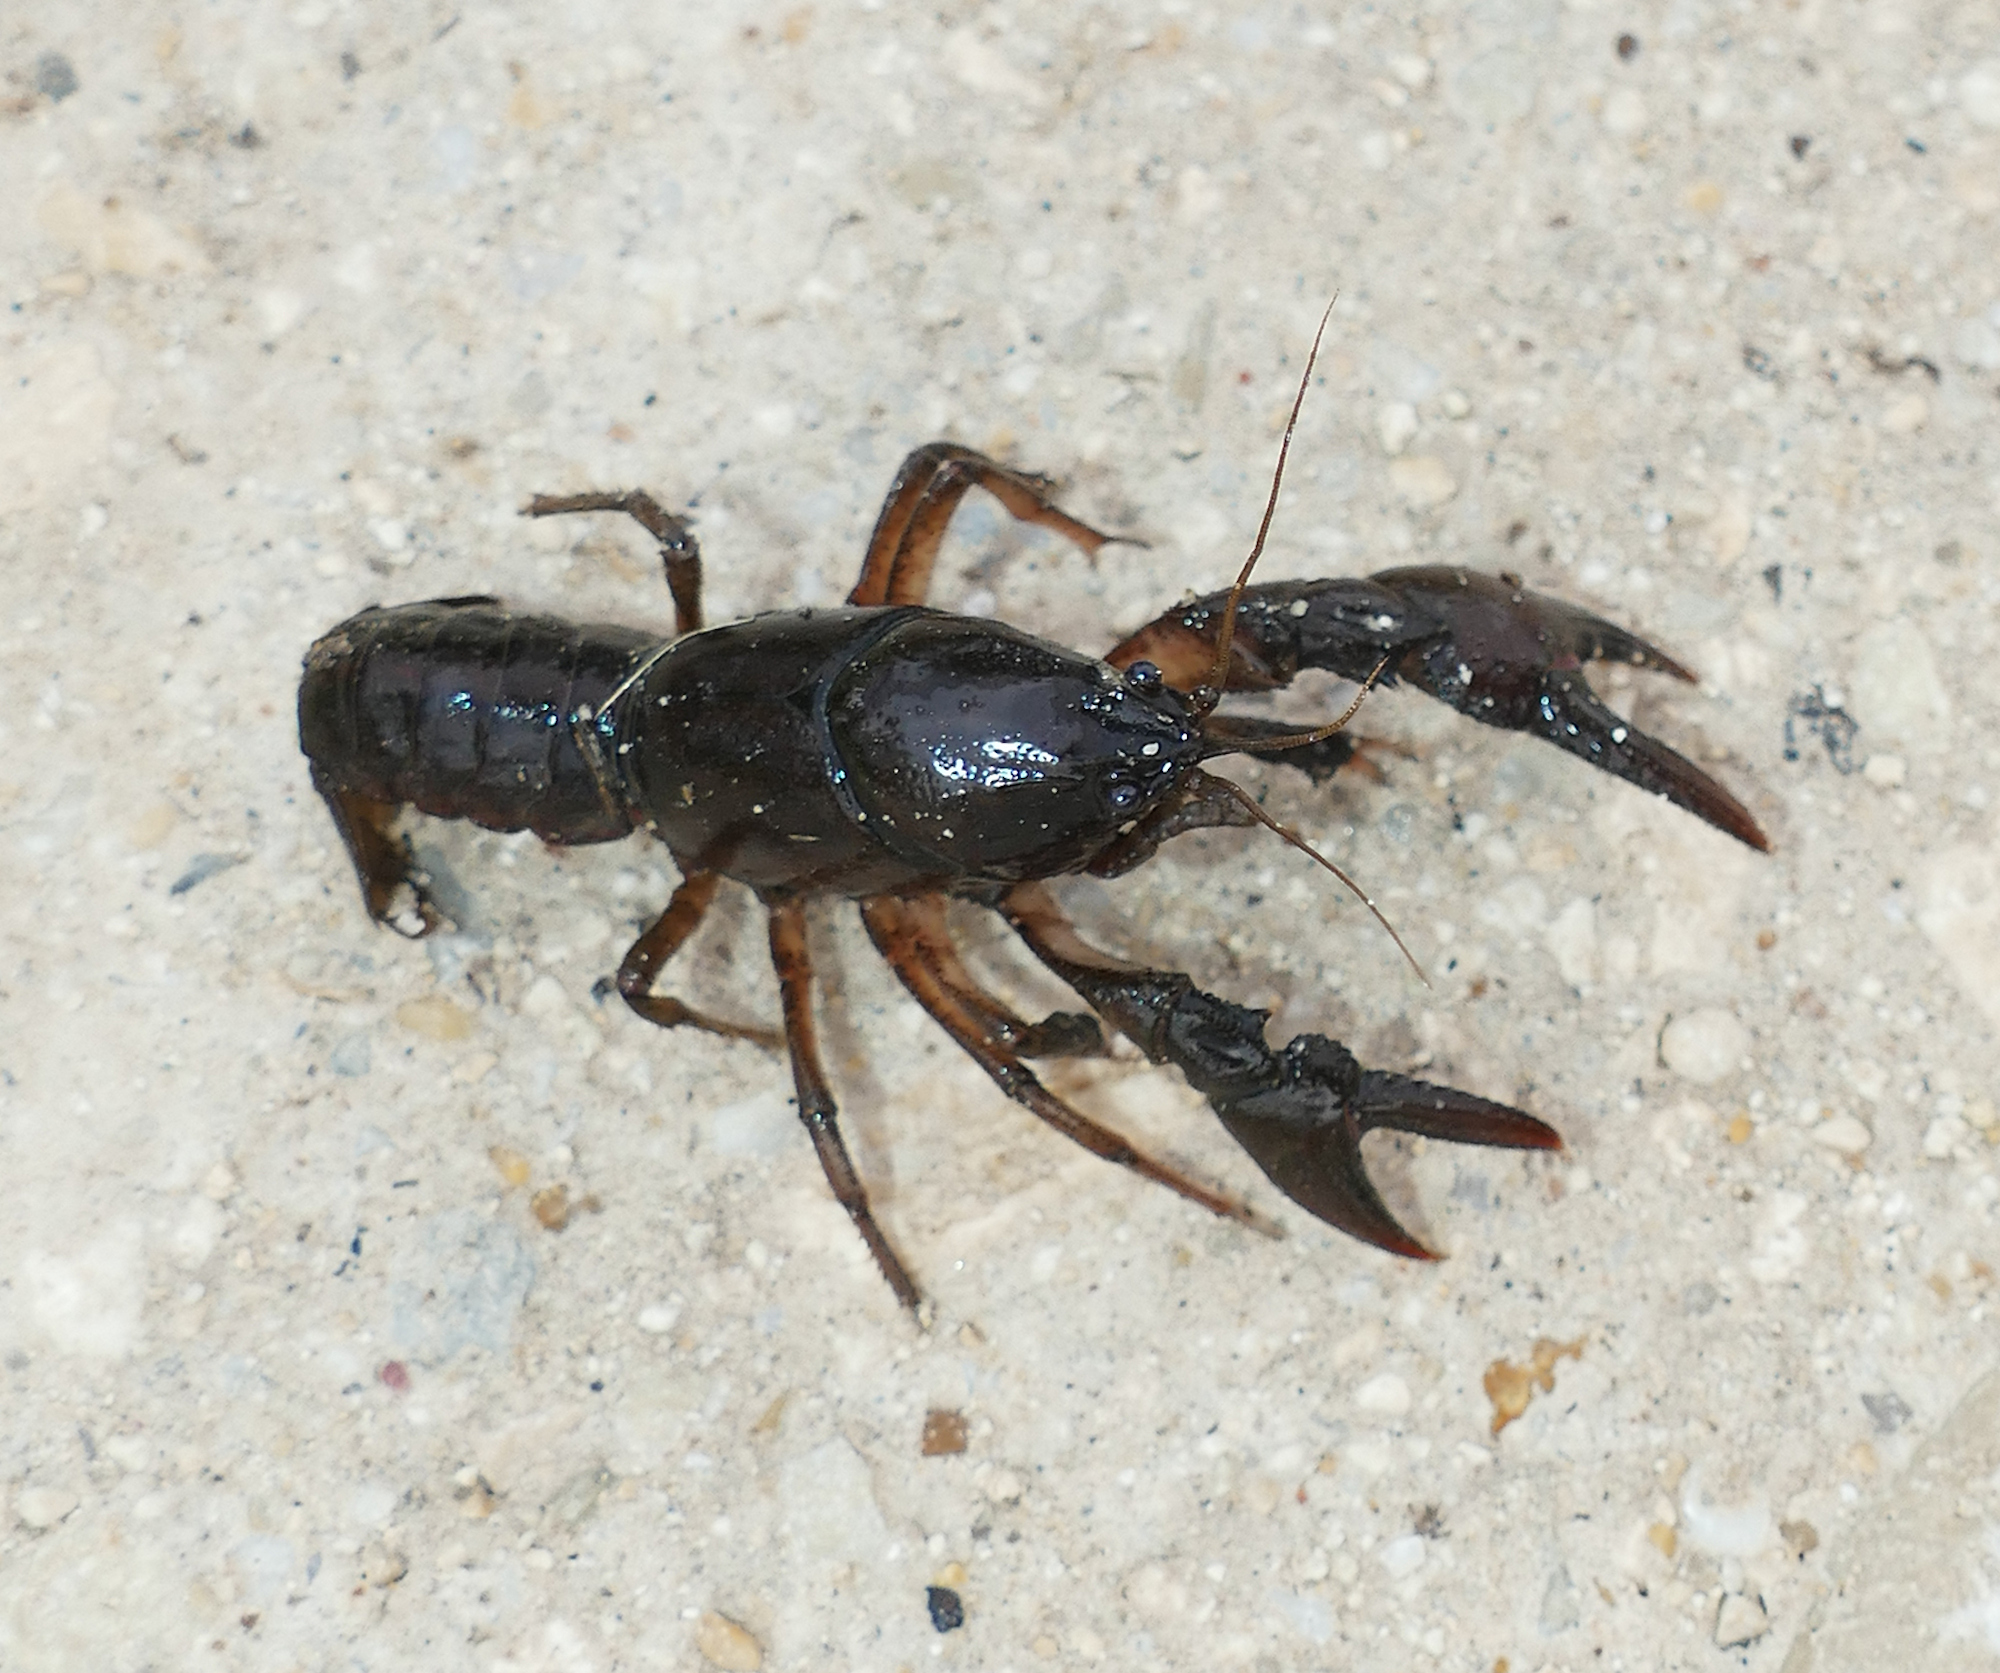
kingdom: Animalia
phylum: Arthropoda
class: Malacostraca
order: Decapoda
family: Cambaridae
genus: Creaserinus
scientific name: Creaserinus fodiens
